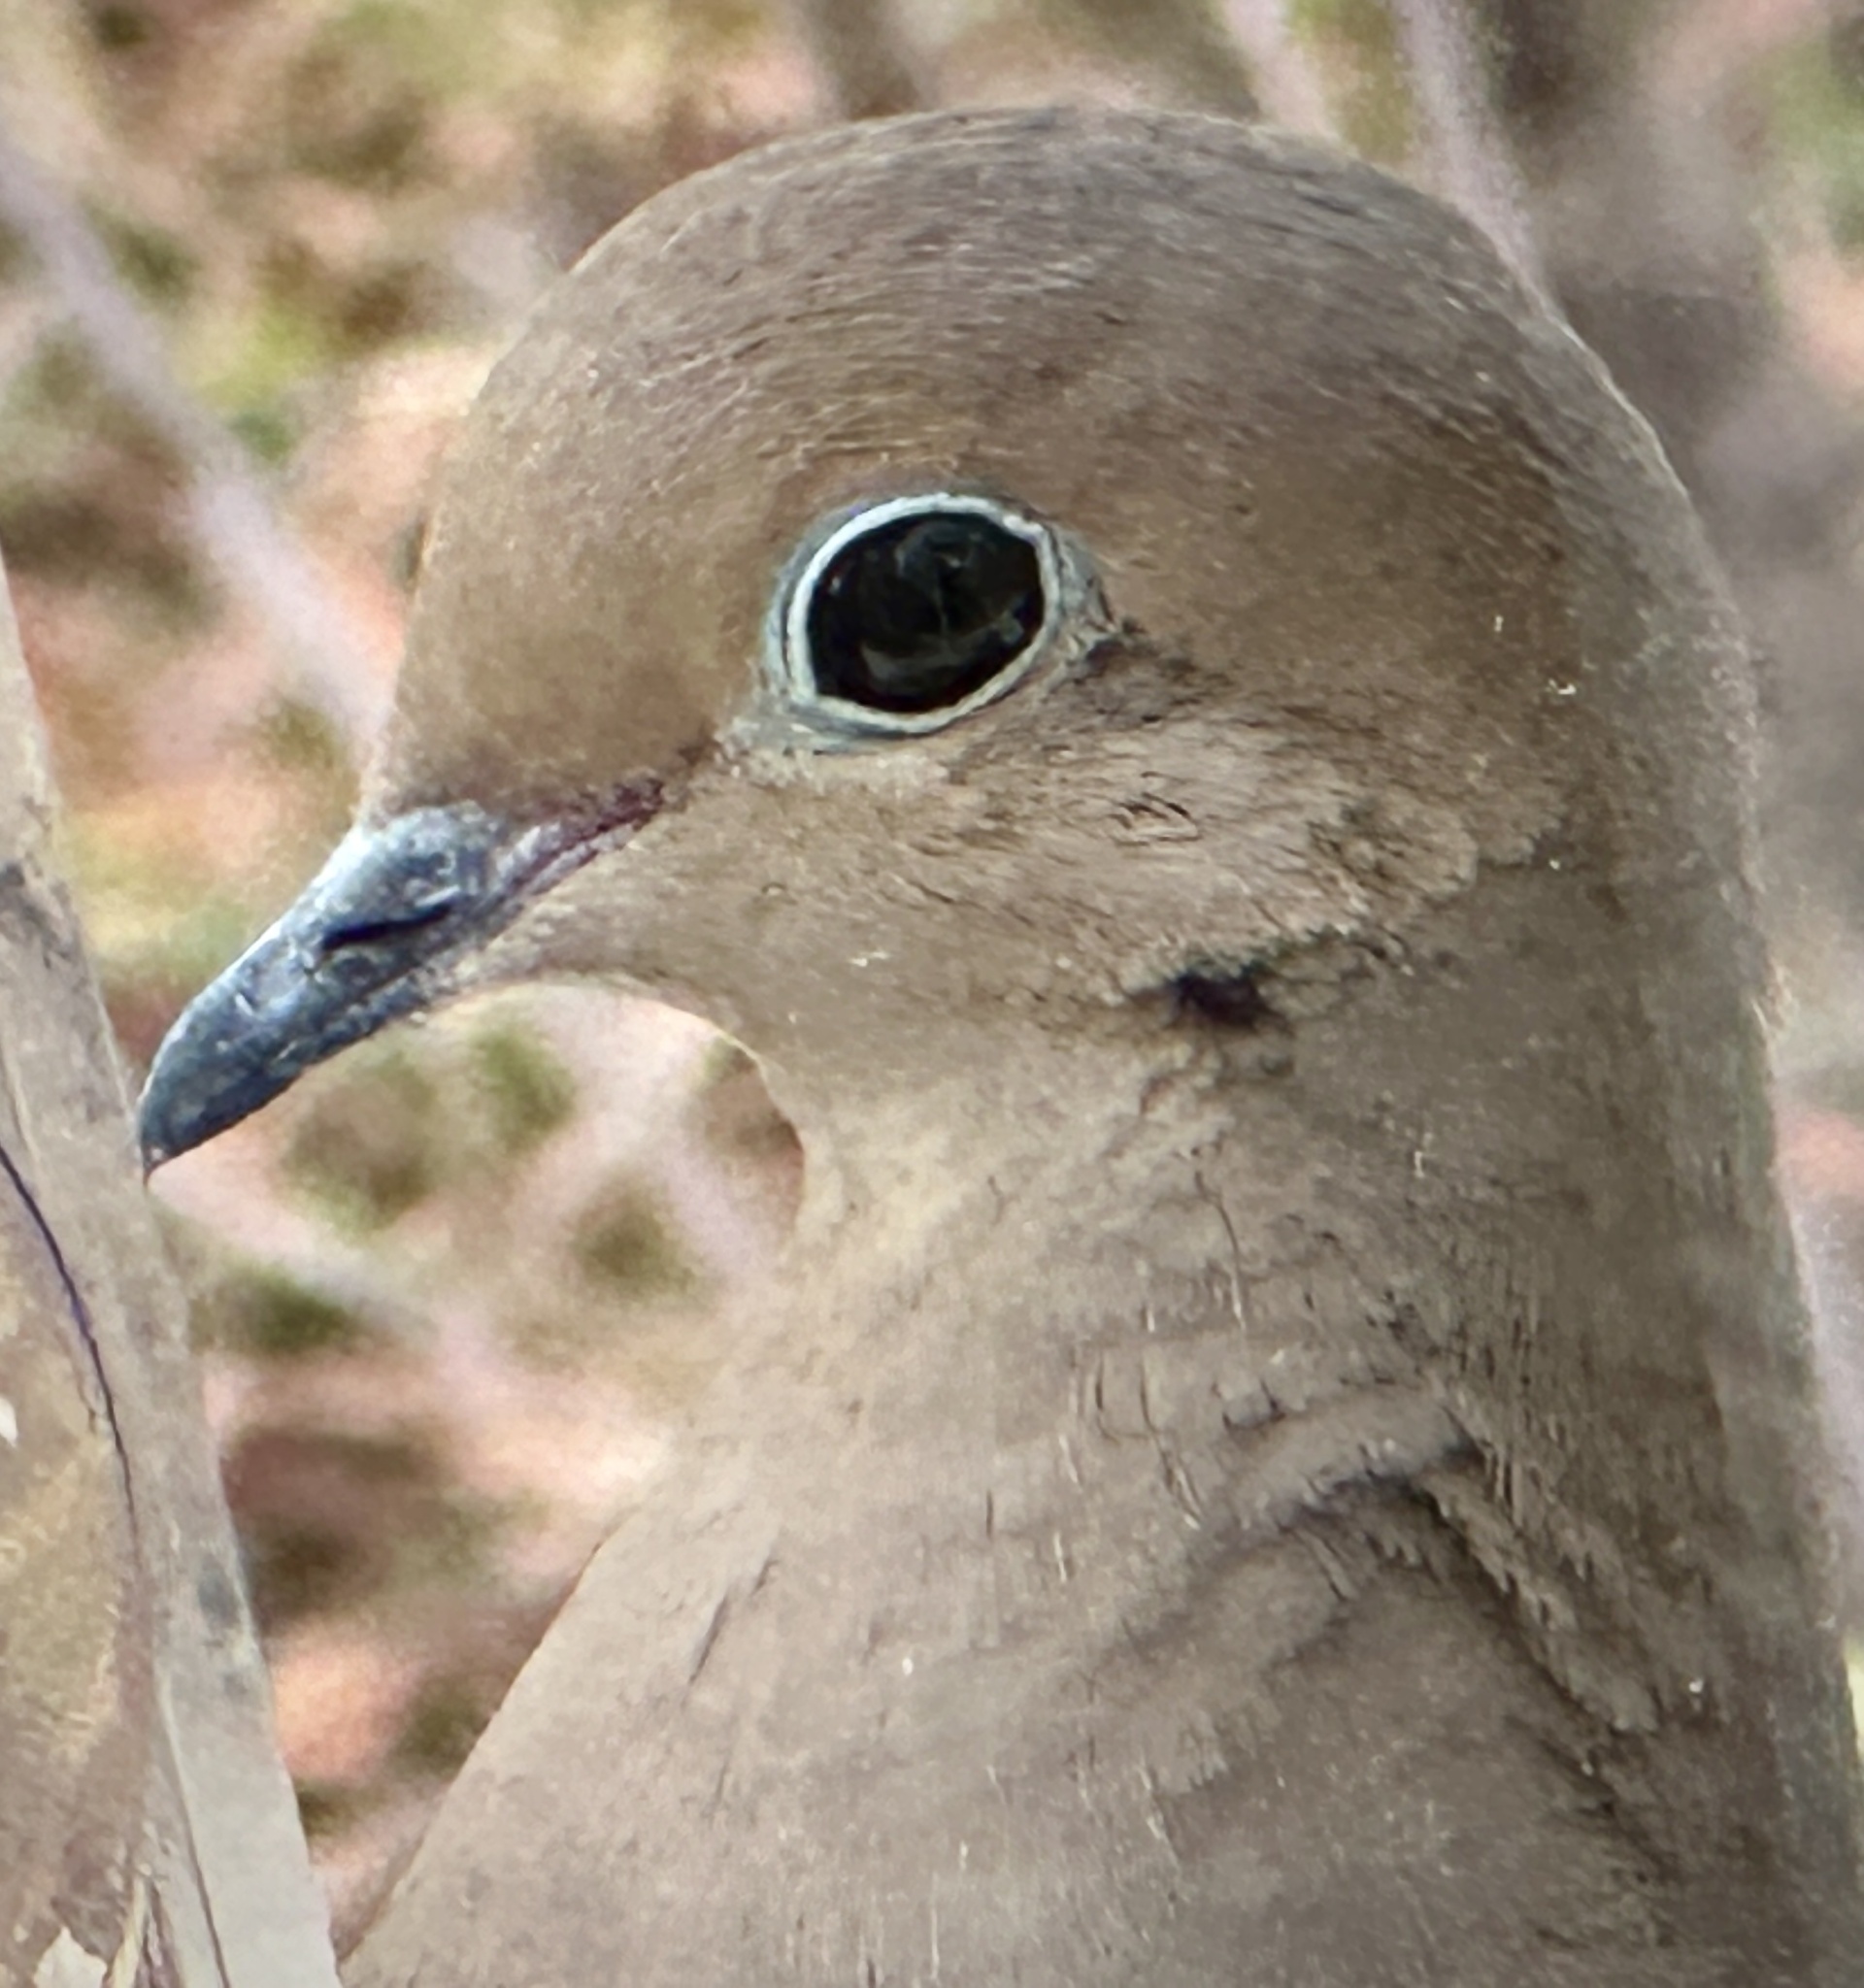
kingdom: Animalia
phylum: Chordata
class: Aves
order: Columbiformes
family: Columbidae
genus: Zenaida
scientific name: Zenaida macroura
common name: Mourning dove
